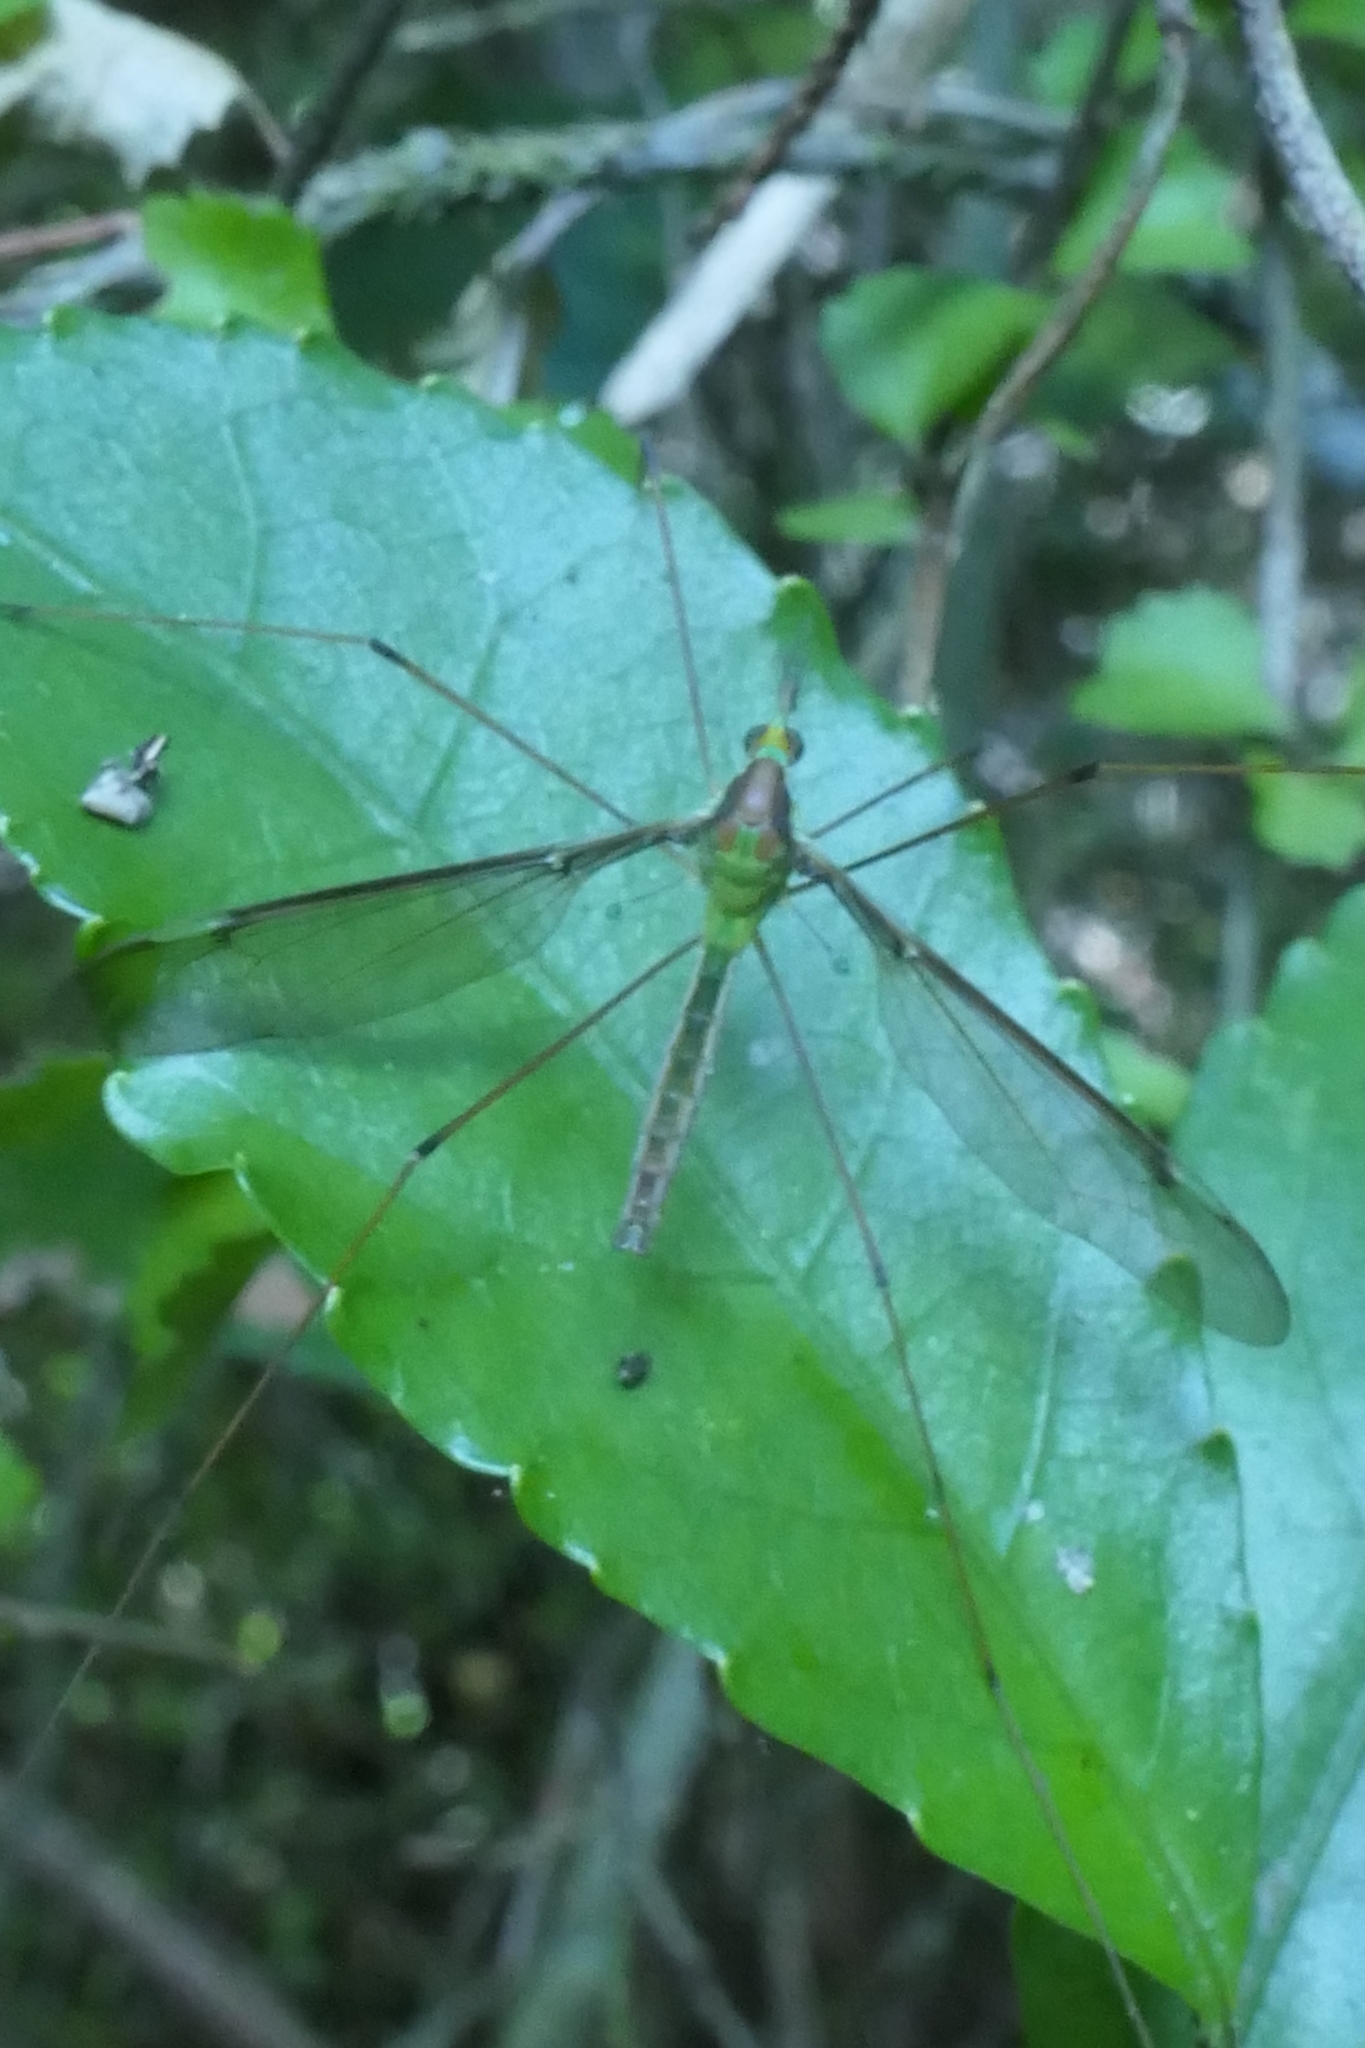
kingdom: Animalia
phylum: Arthropoda
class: Insecta
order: Diptera
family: Tipulidae
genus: Leptotarsus
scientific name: Leptotarsus albistigma
